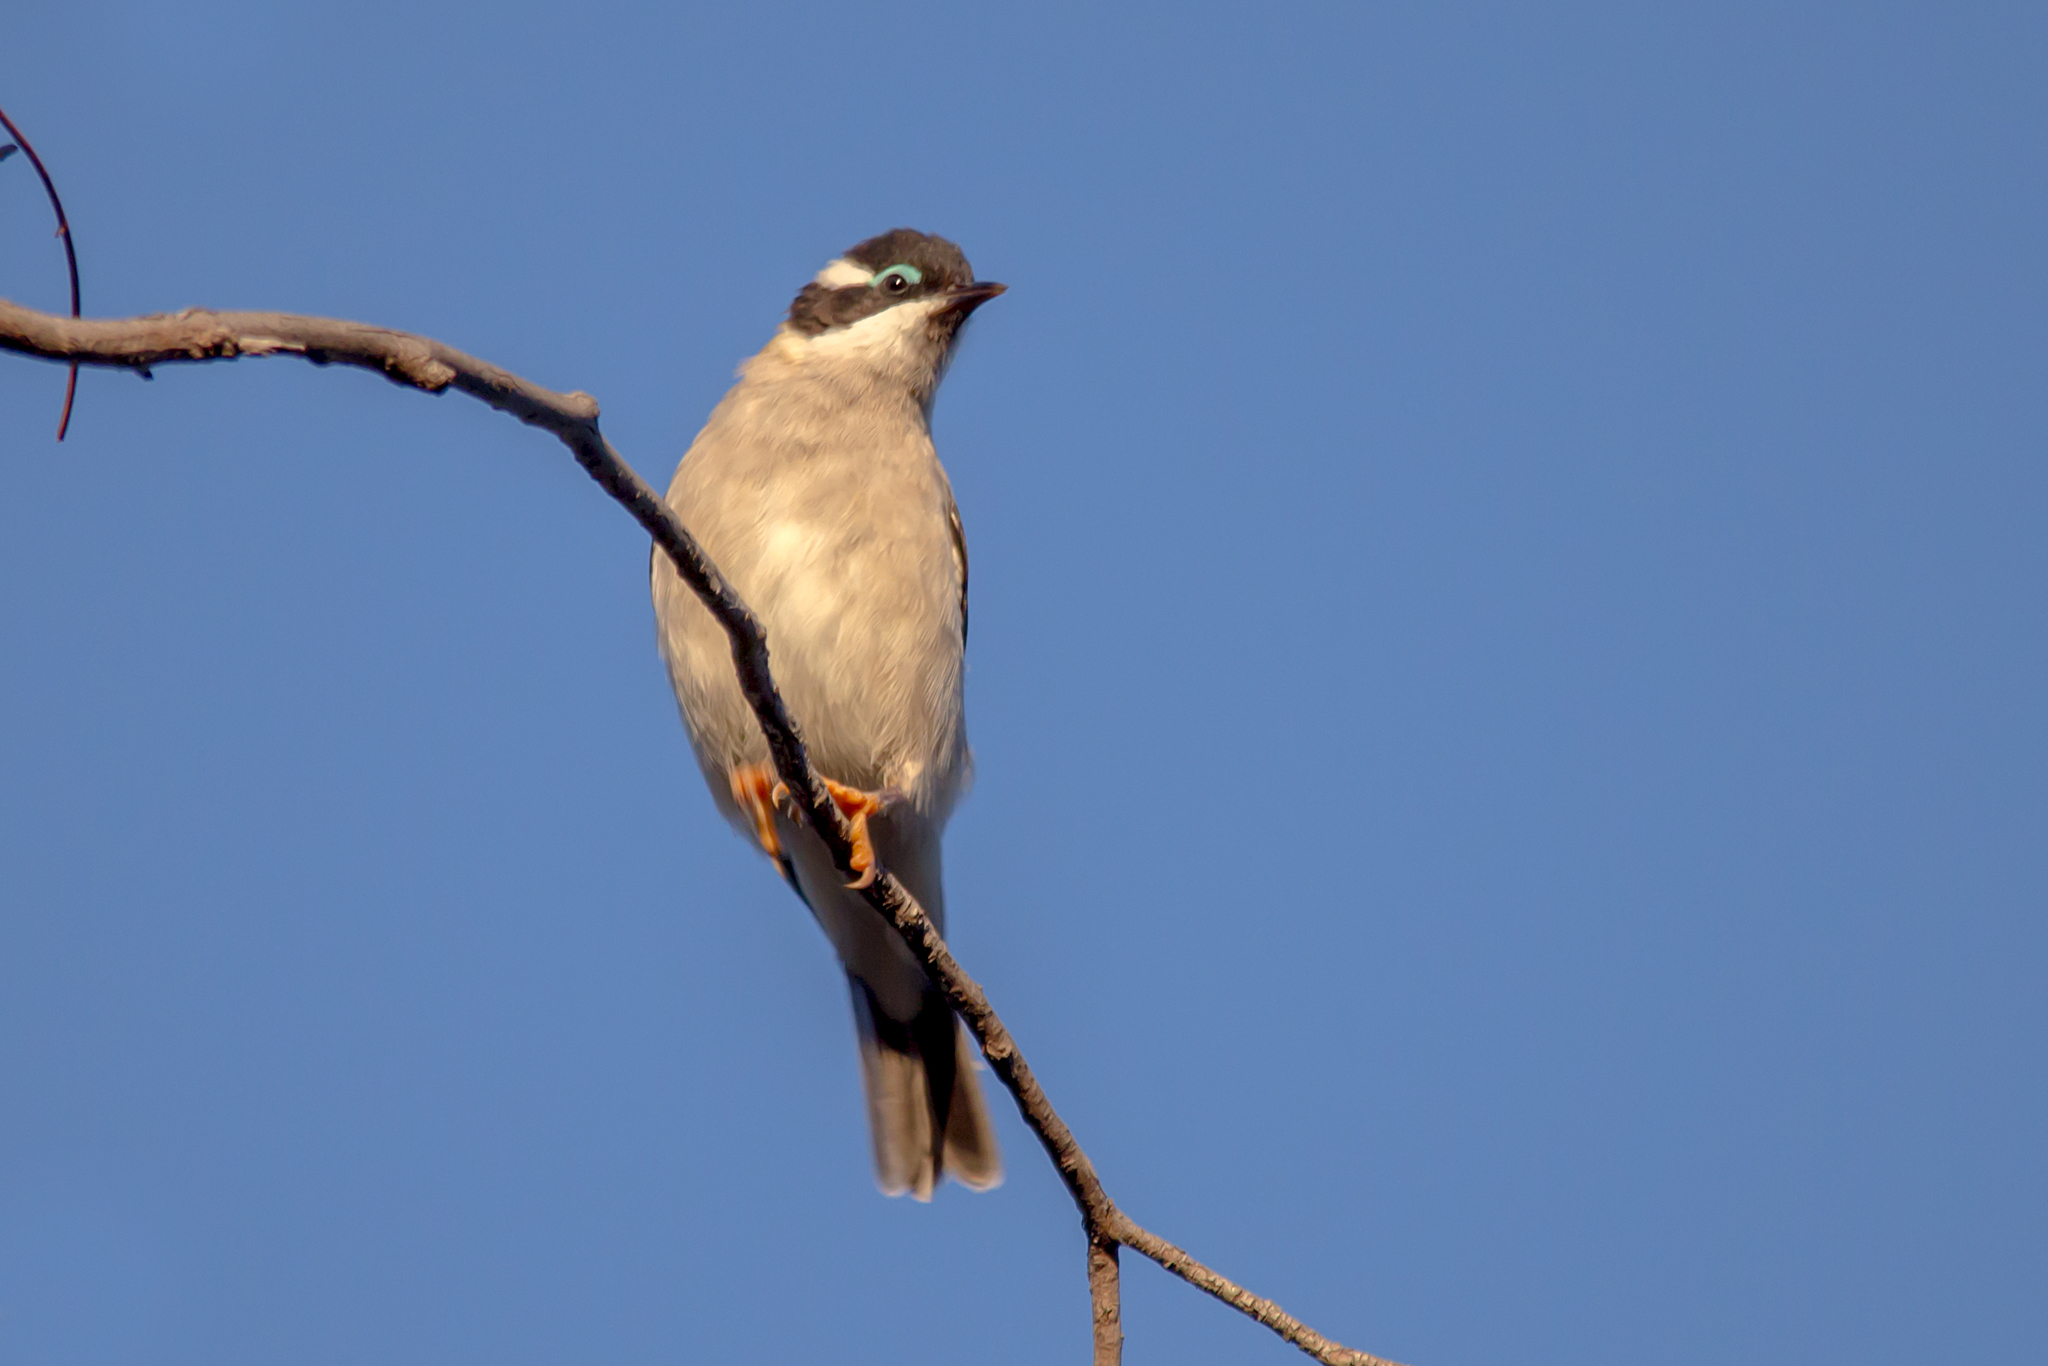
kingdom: Animalia
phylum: Chordata
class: Aves
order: Passeriformes
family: Meliphagidae
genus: Melithreptus
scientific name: Melithreptus gularis
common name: Black-chinned honeyeater
